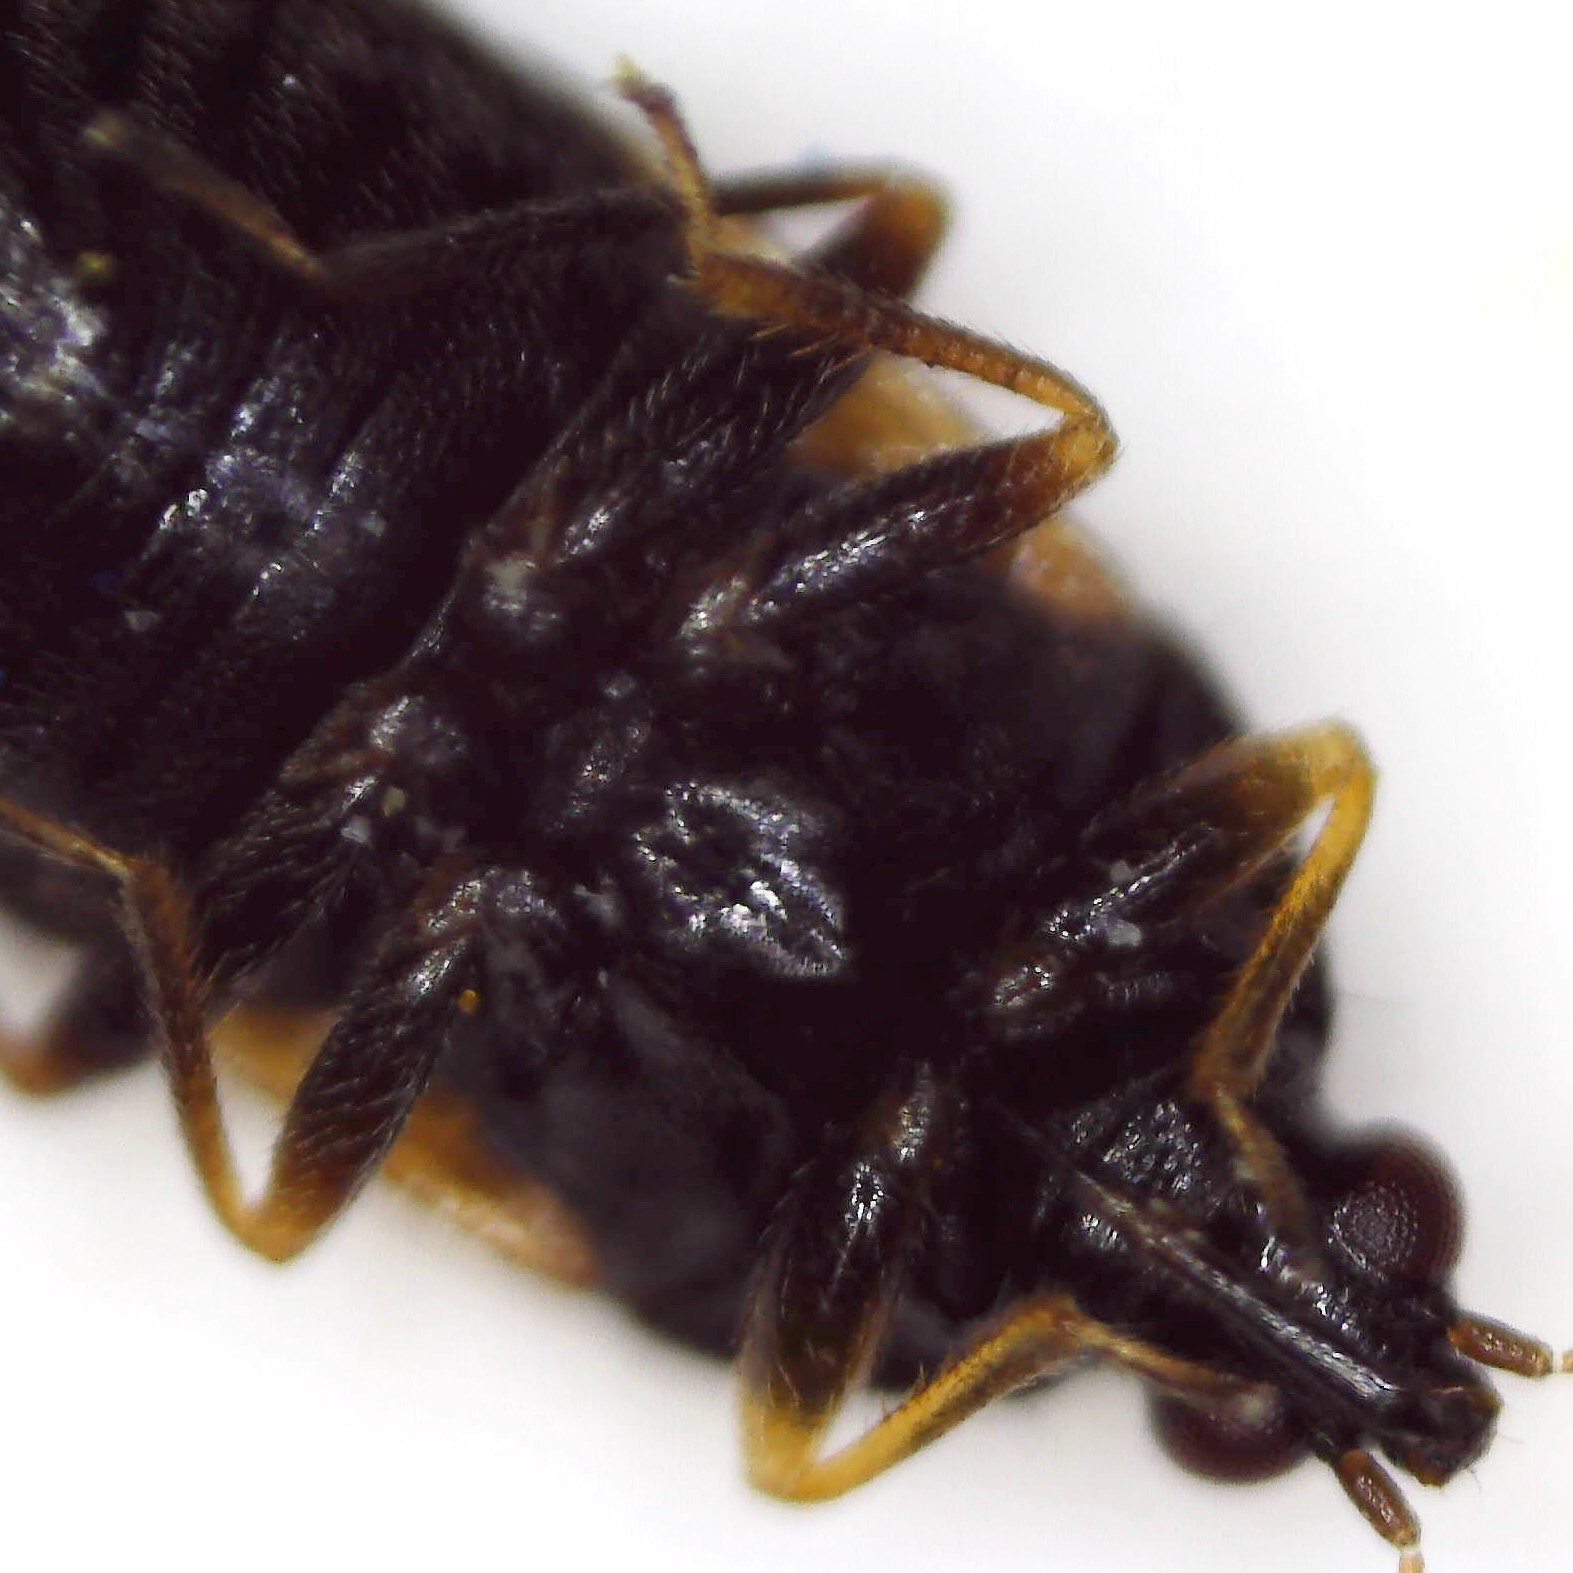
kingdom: Animalia
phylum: Arthropoda
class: Insecta
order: Hemiptera
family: Anthocoridae
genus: Orius
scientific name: Orius laevigatus
